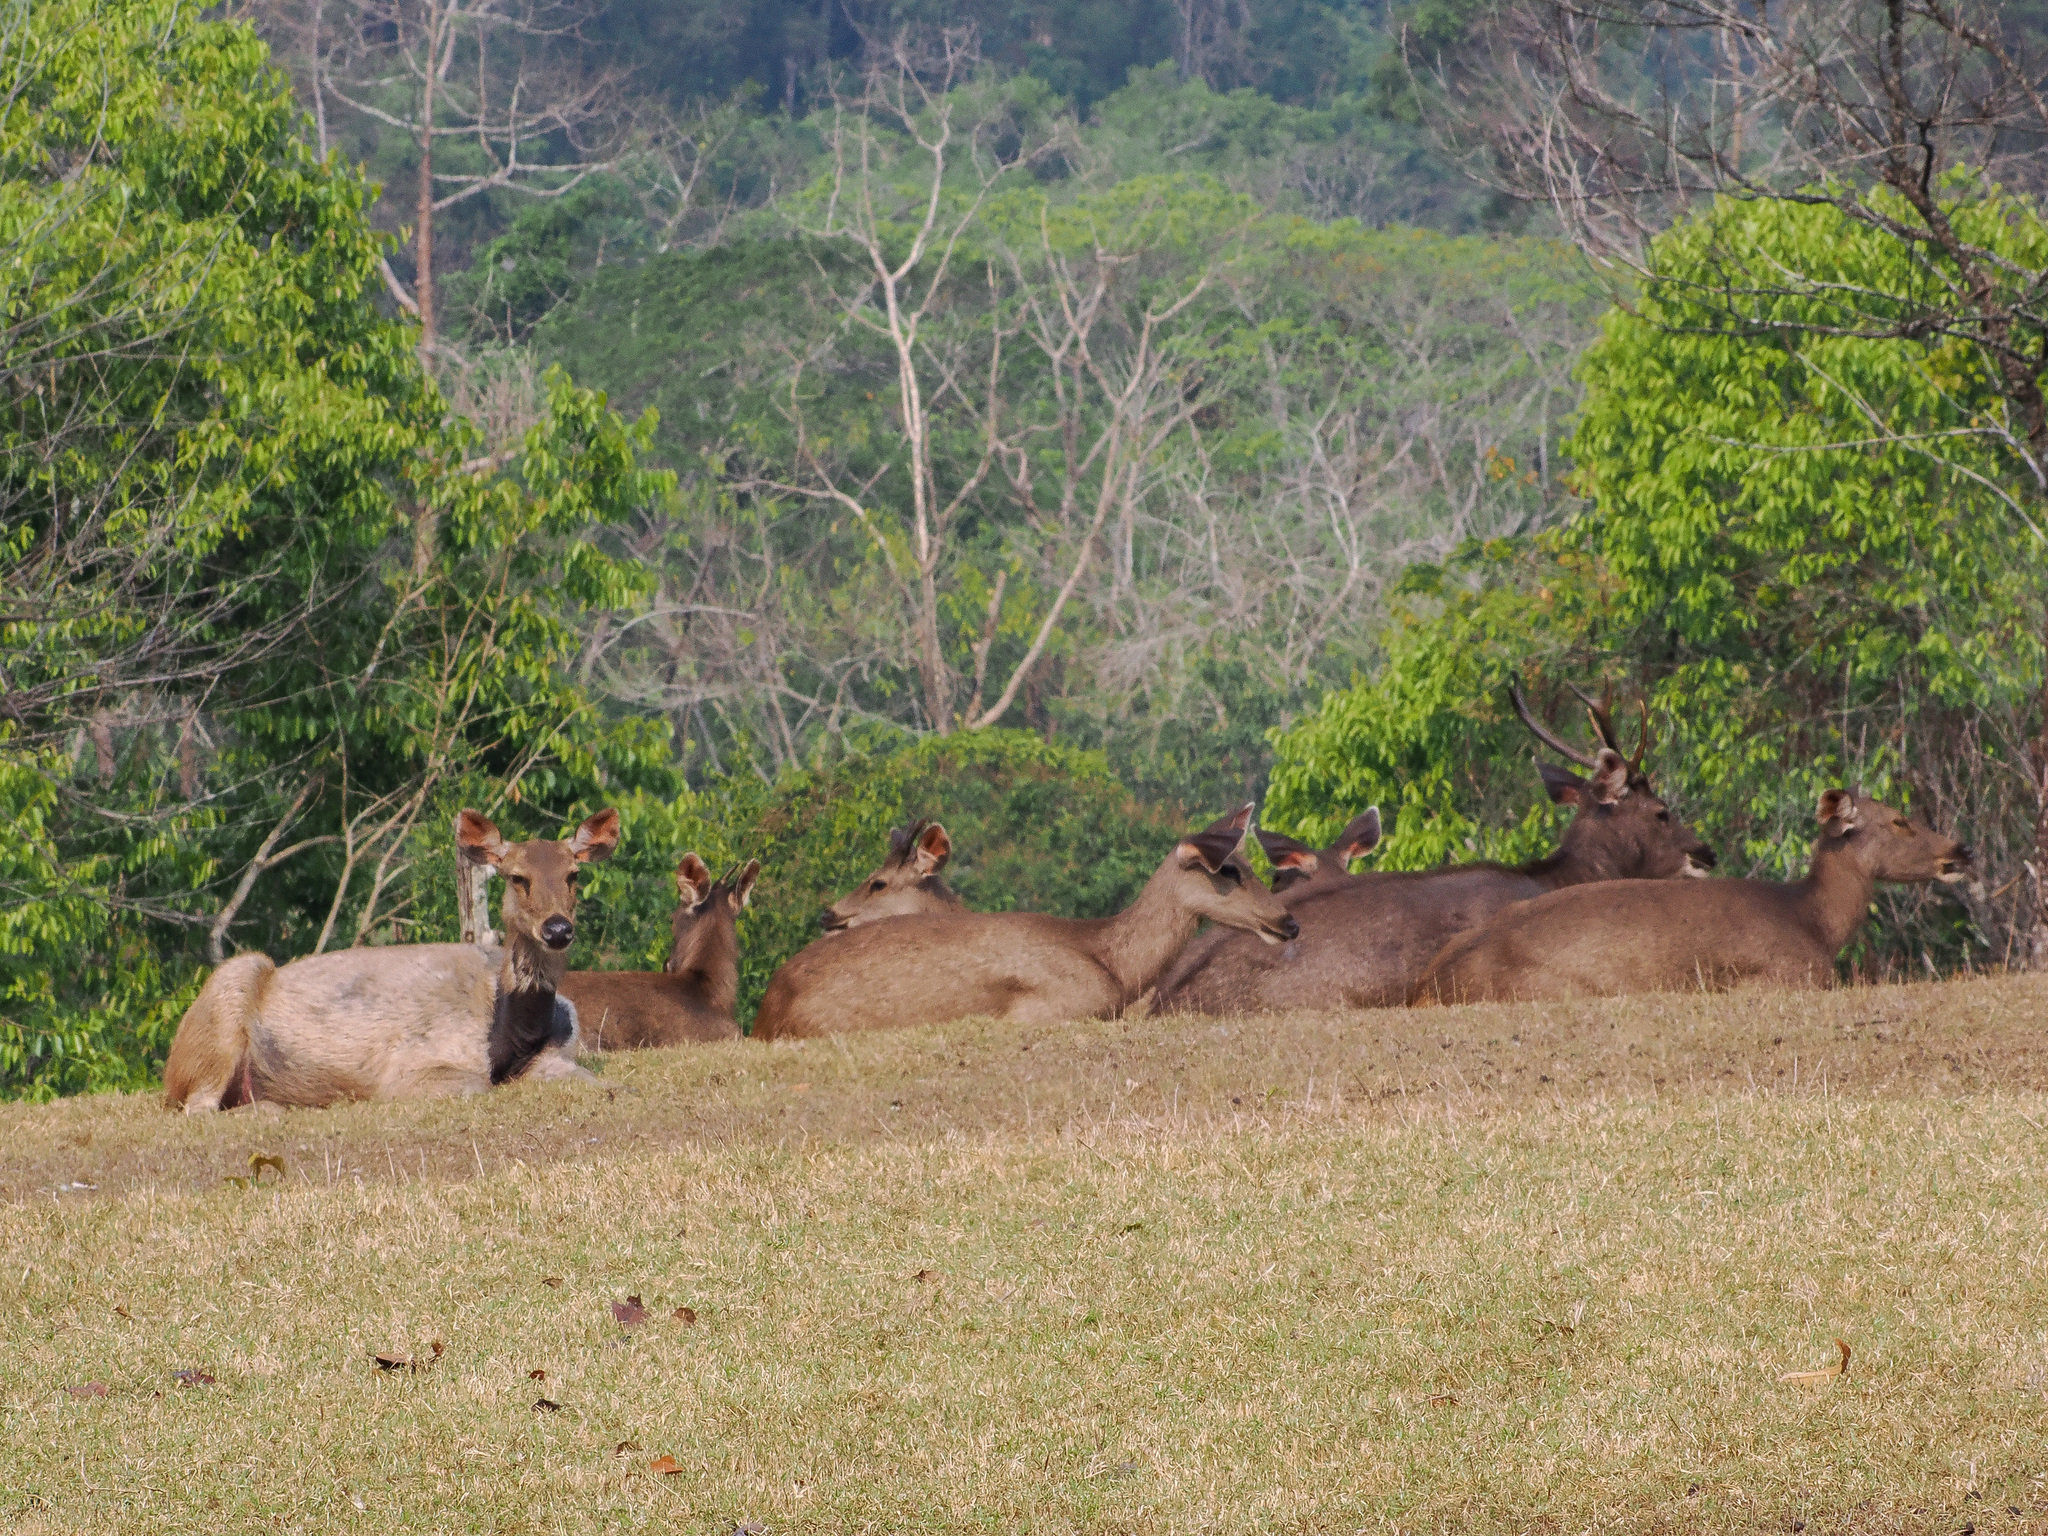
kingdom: Animalia
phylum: Chordata
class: Mammalia
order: Artiodactyla
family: Cervidae
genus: Rusa
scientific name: Rusa unicolor
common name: Sambar
